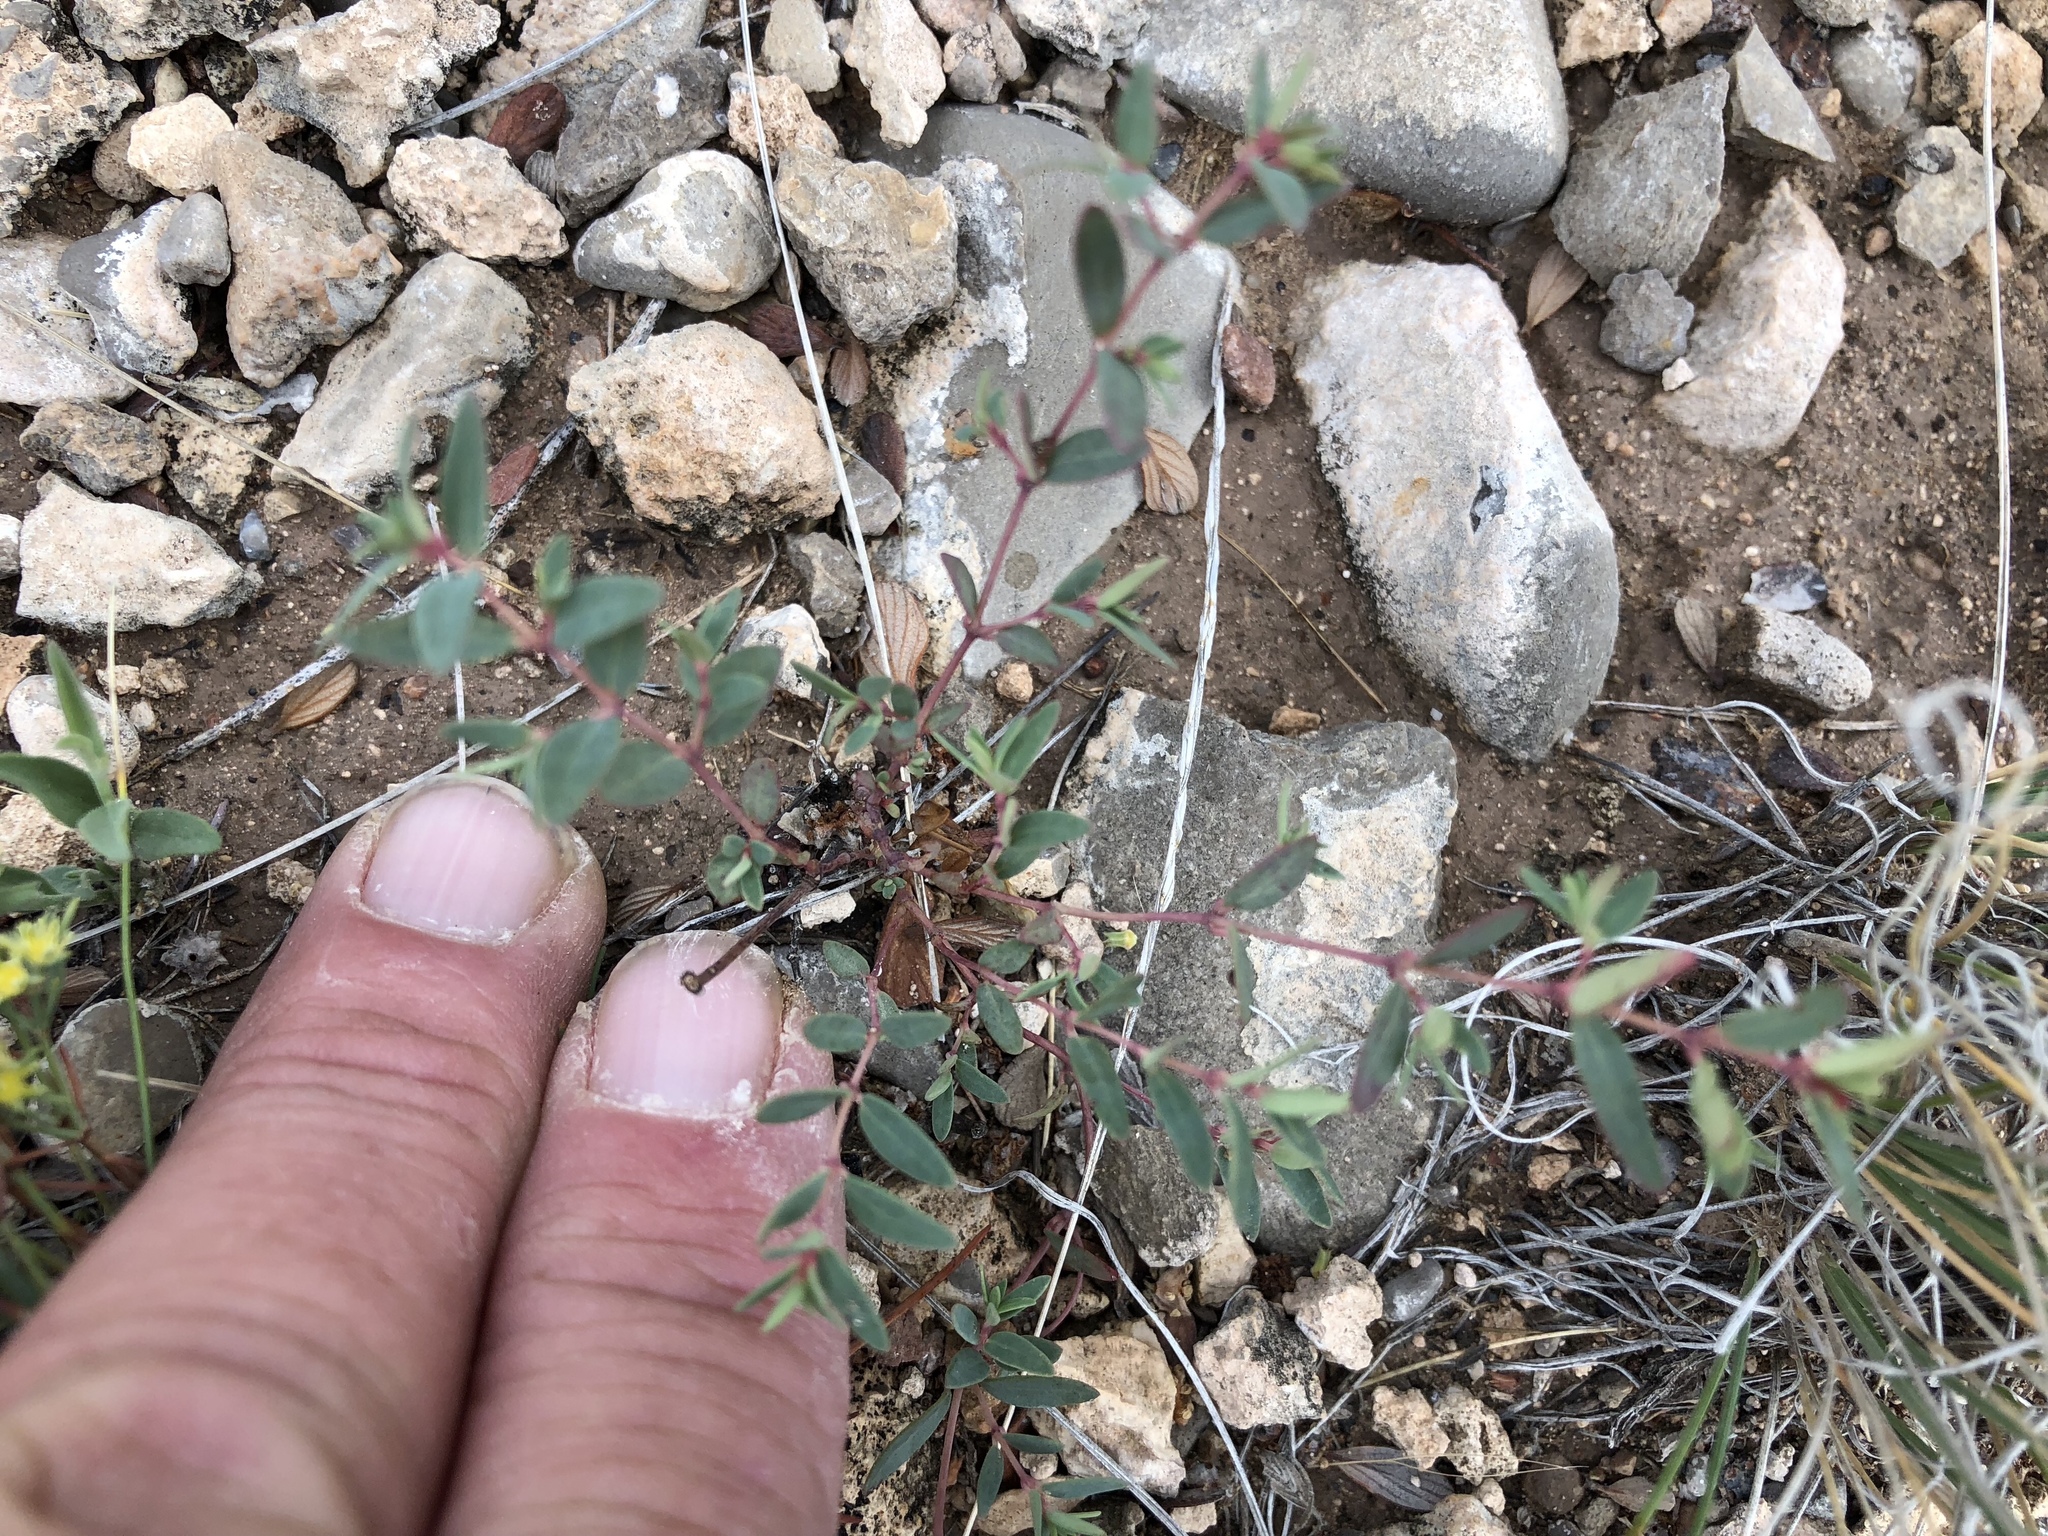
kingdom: Plantae
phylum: Tracheophyta
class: Magnoliopsida
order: Malpighiales
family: Euphorbiaceae
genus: Euphorbia
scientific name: Euphorbia chaetocalyx
